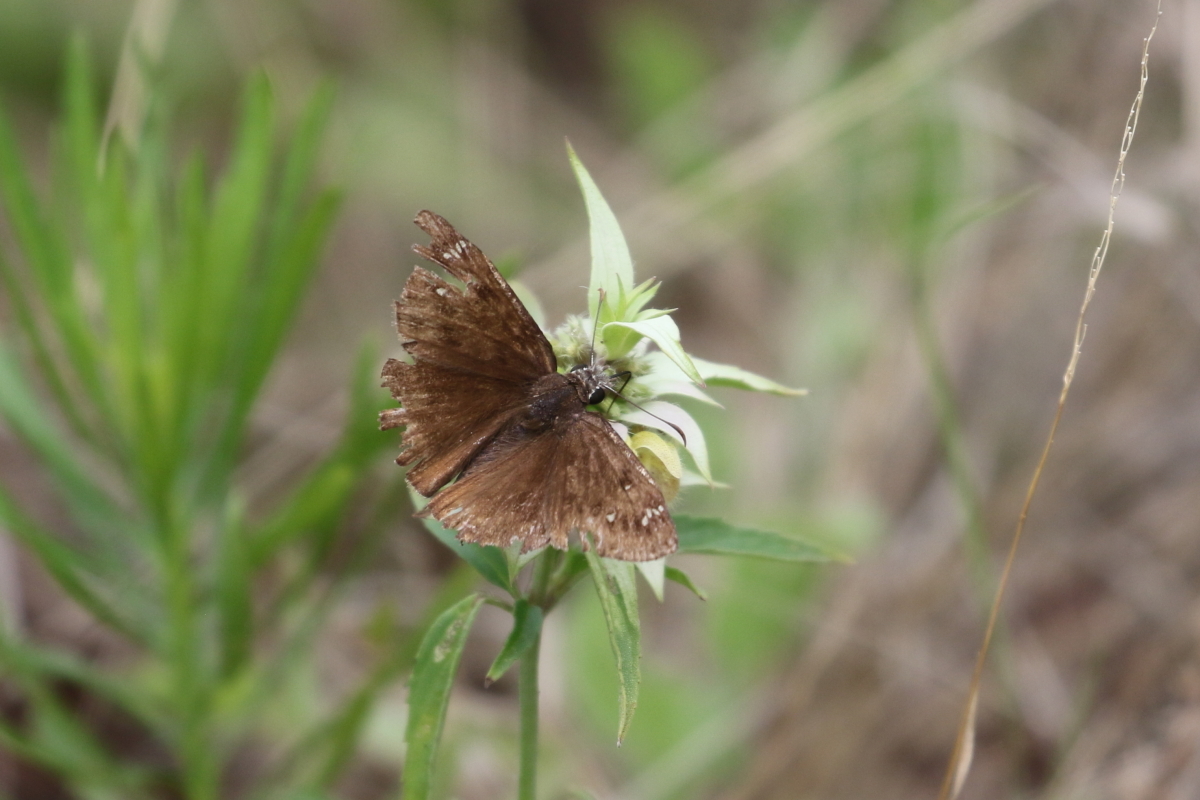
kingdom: Animalia
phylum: Arthropoda
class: Insecta
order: Lepidoptera
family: Hesperiidae
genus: Erynnis
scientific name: Erynnis horatius
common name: Horace's duskywing
